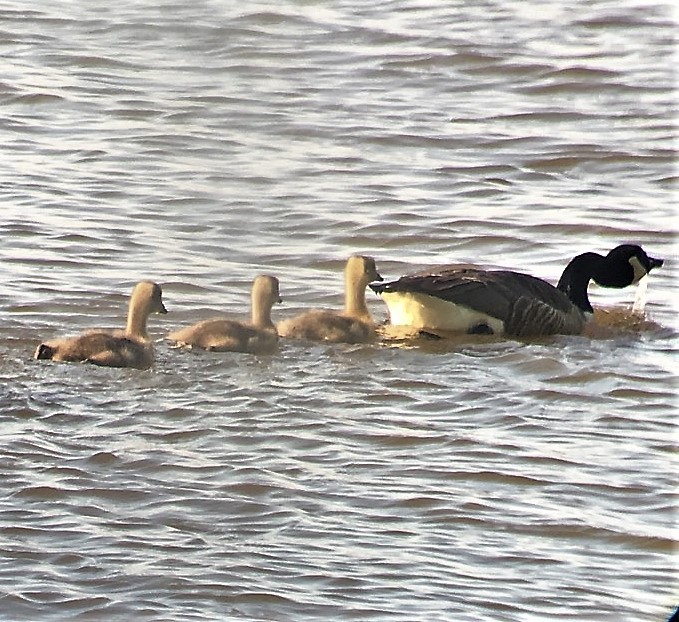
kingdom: Animalia
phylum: Chordata
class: Aves
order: Anseriformes
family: Anatidae
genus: Branta
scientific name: Branta canadensis
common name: Canada goose
